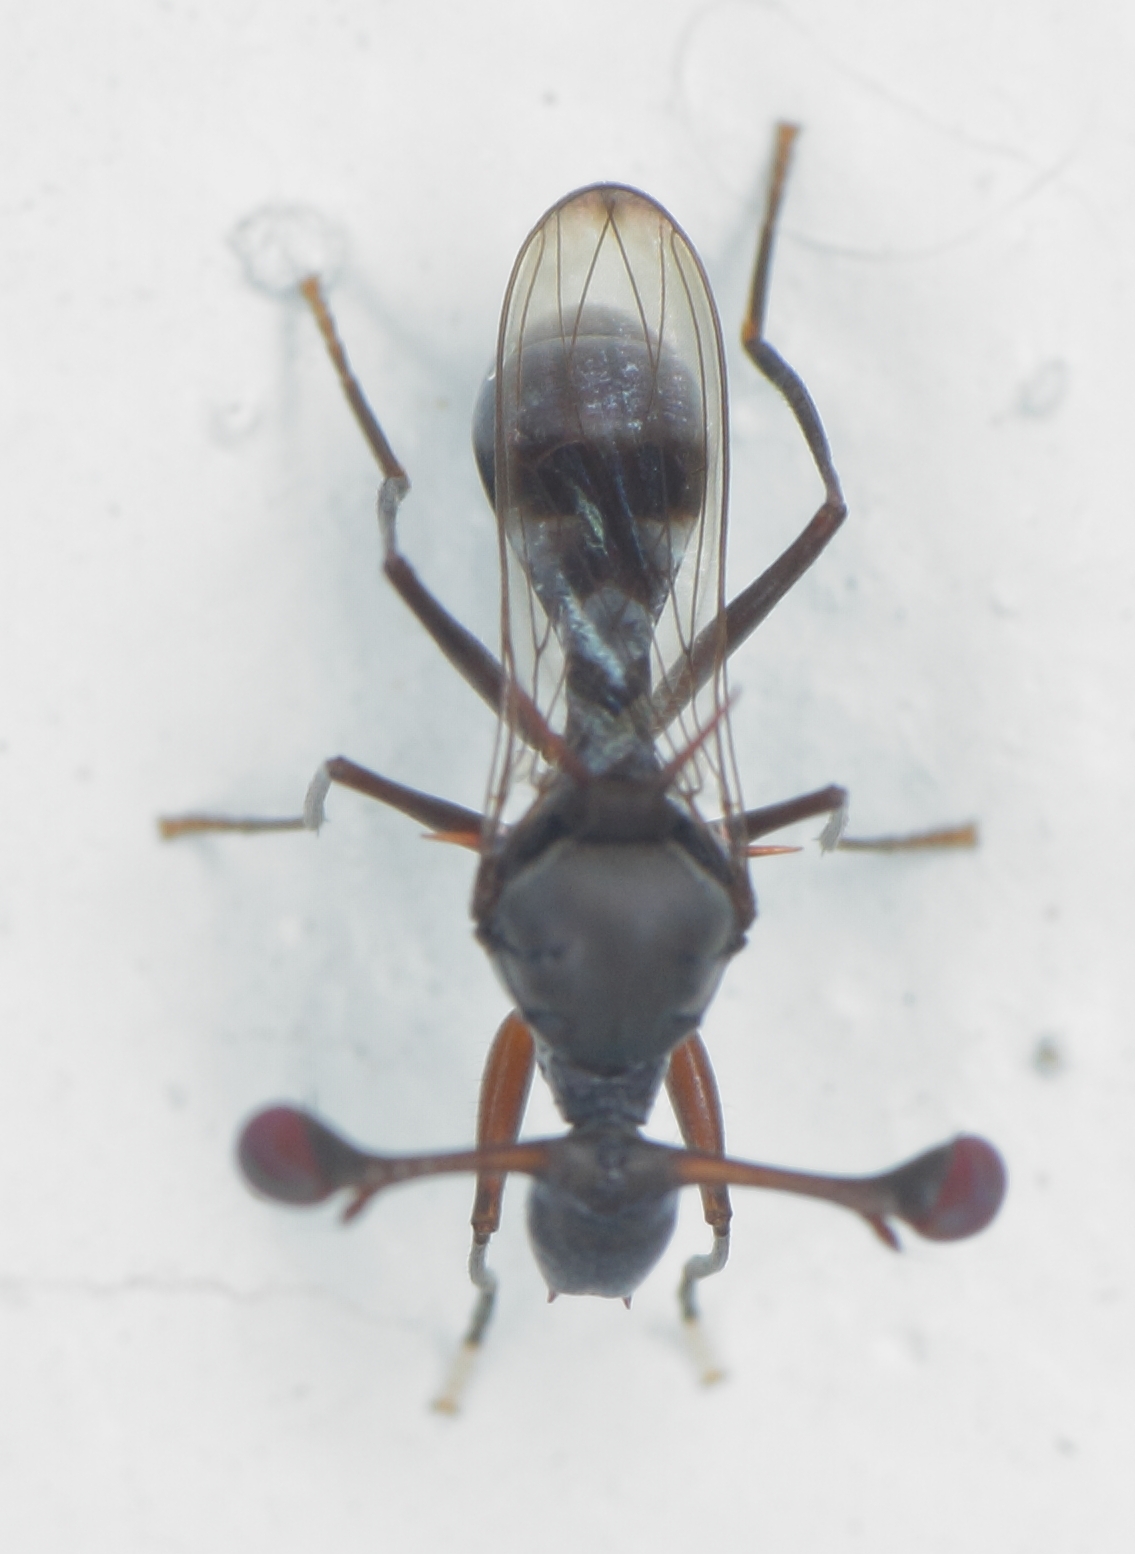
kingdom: Animalia
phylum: Arthropoda
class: Insecta
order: Diptera
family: Diopsidae
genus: Chaetodiopsis
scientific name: Chaetodiopsis
